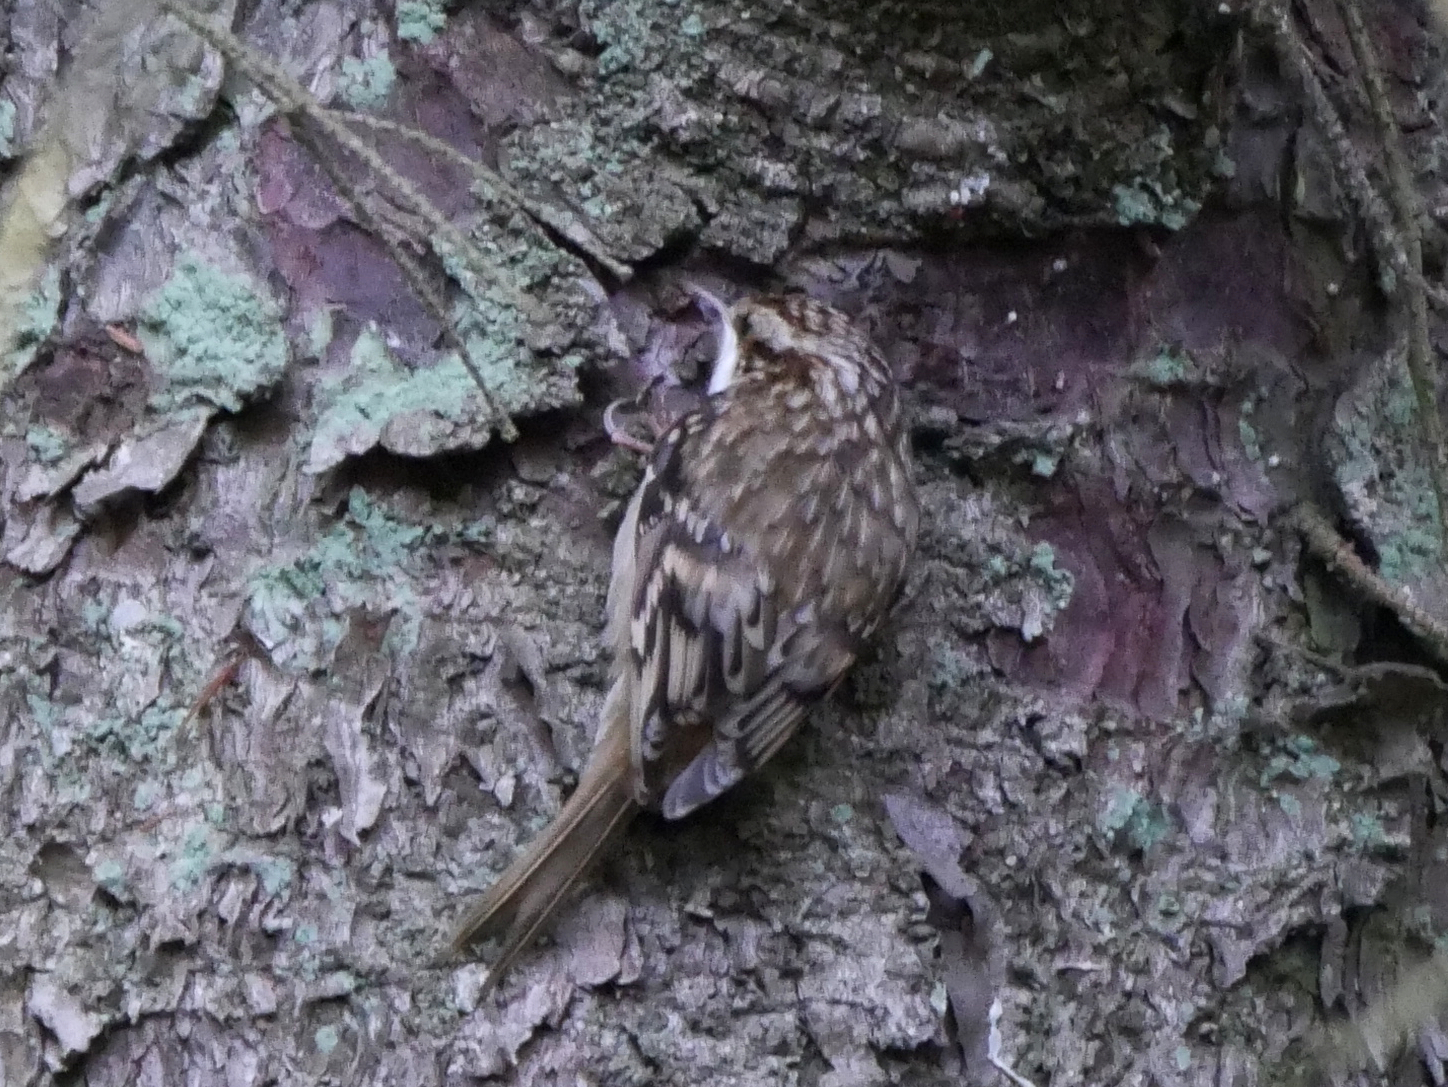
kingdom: Animalia
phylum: Chordata
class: Aves
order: Passeriformes
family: Certhiidae
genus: Certhia
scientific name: Certhia familiaris
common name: Eurasian treecreeper
